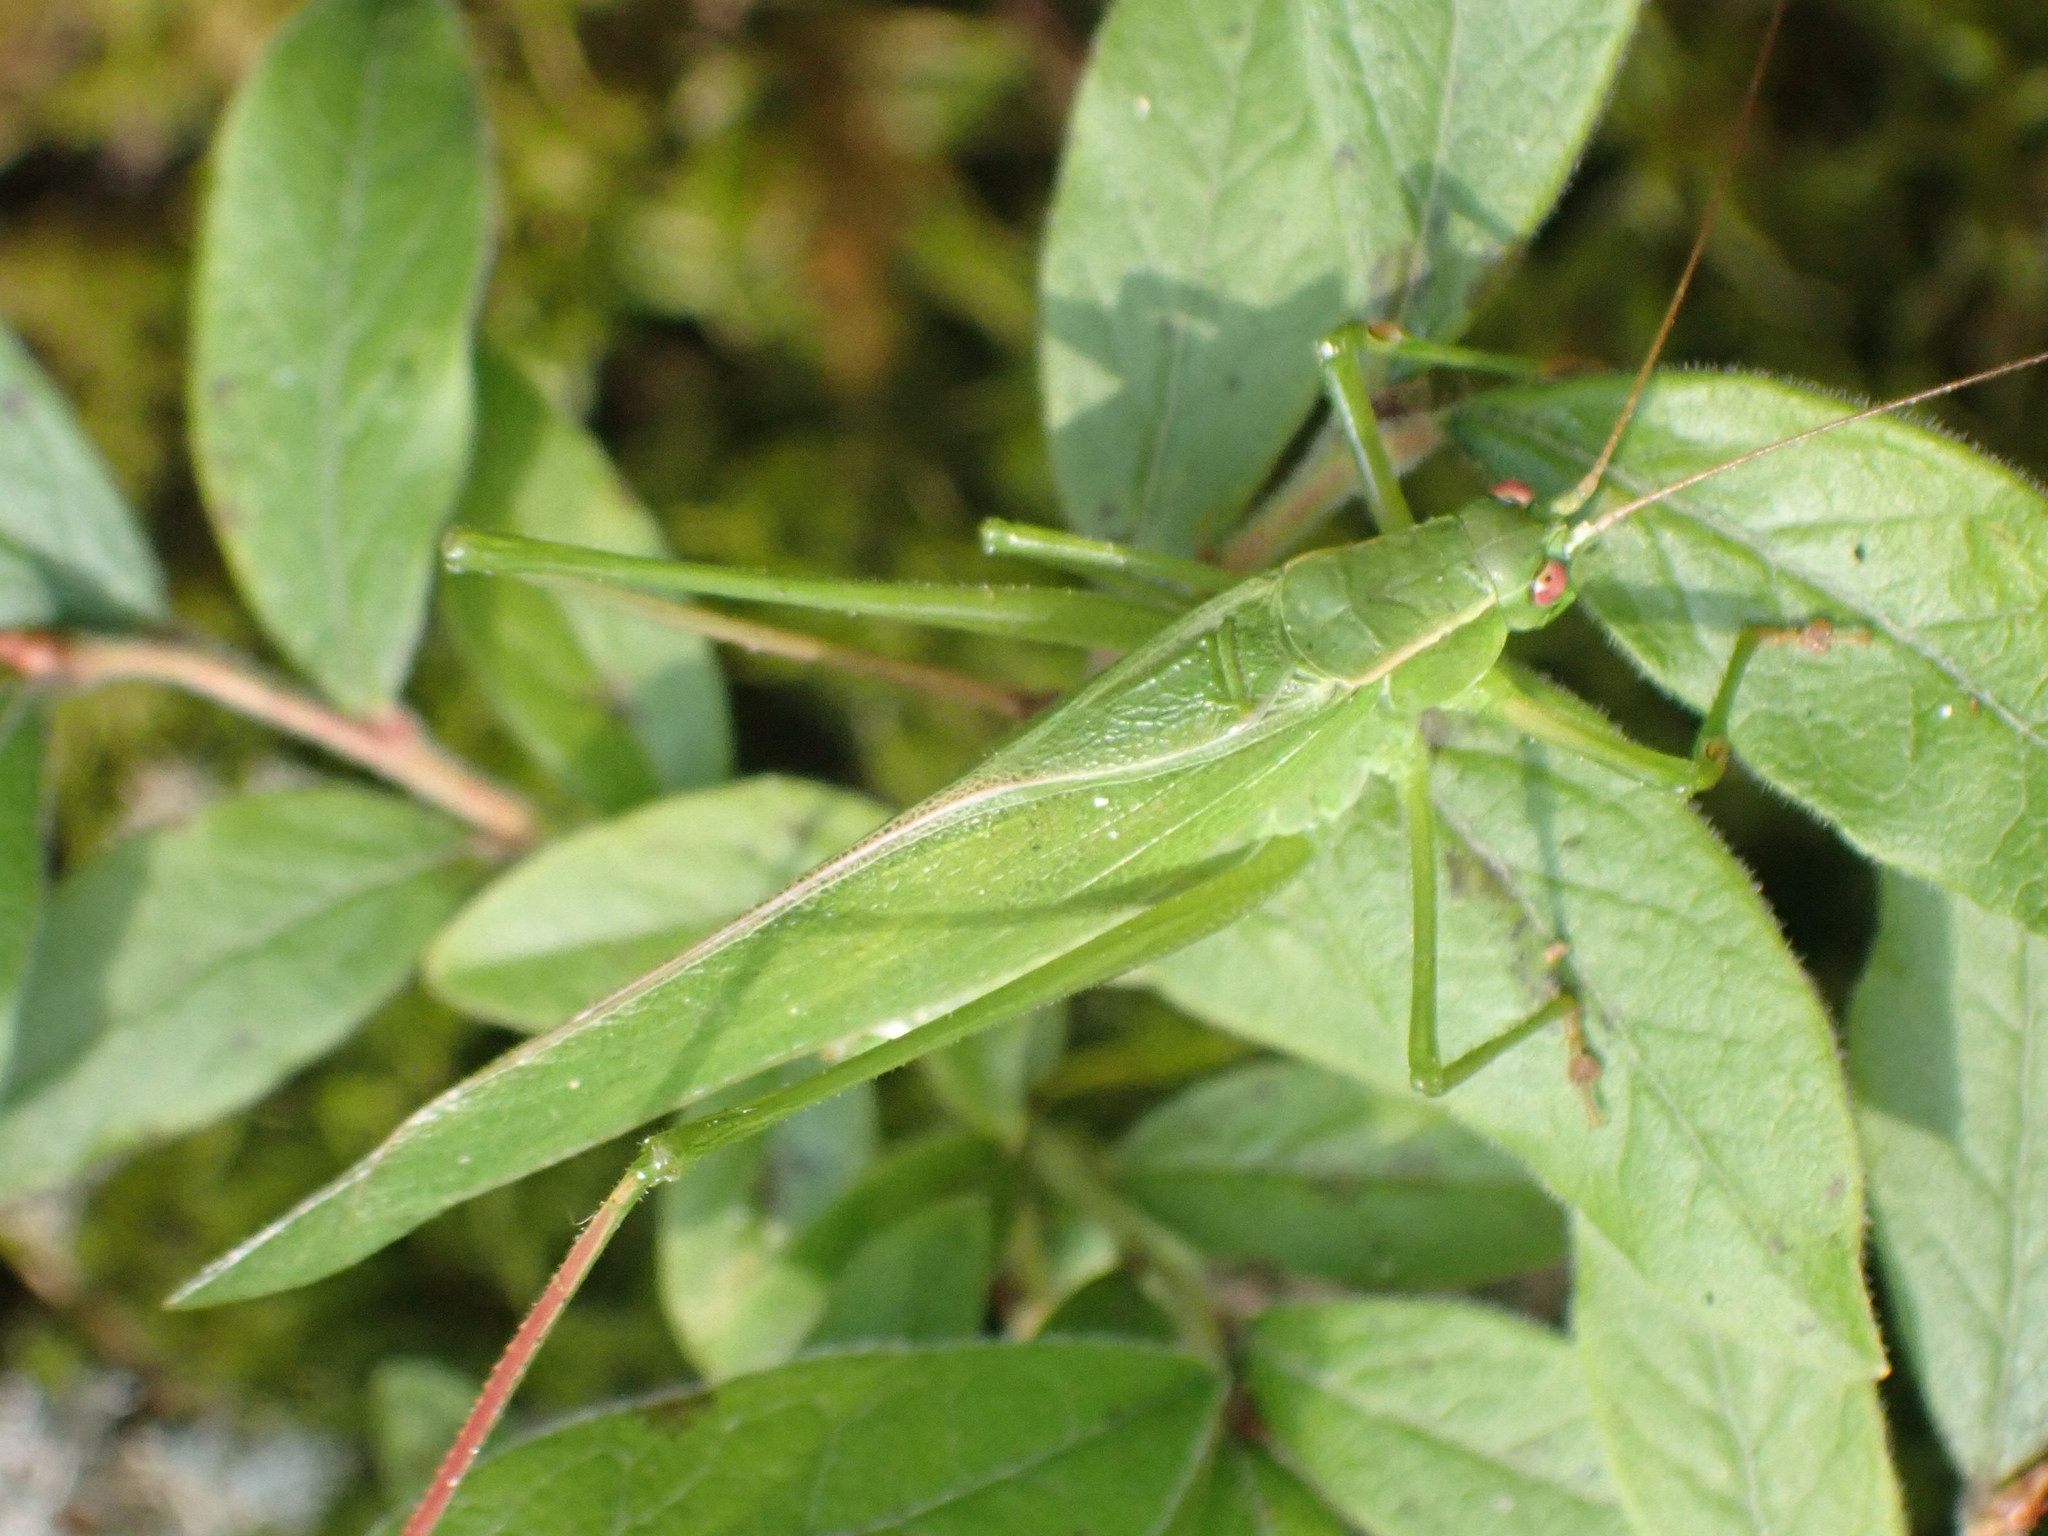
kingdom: Animalia
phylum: Arthropoda
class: Insecta
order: Orthoptera
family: Tettigoniidae
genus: Scudderia
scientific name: Scudderia curvicauda
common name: Curve-tailed bush katydid
